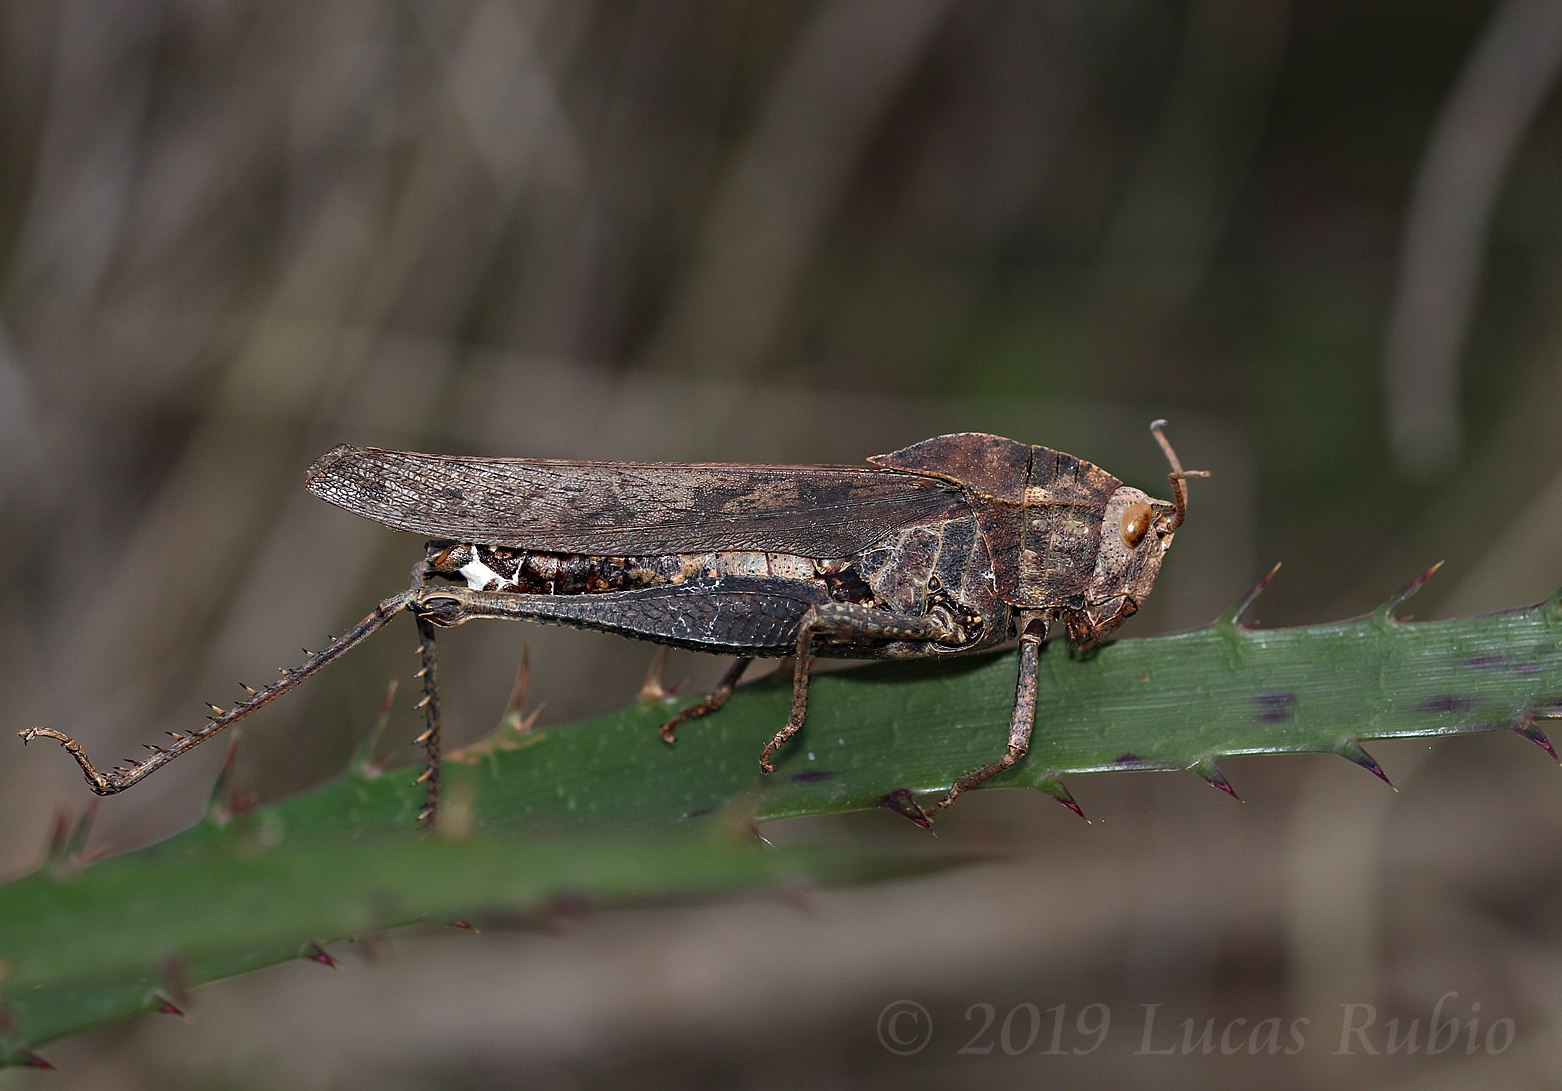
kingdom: Animalia
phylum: Arthropoda
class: Insecta
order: Orthoptera
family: Romaleidae
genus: Xyleus
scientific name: Xyleus discoideus
